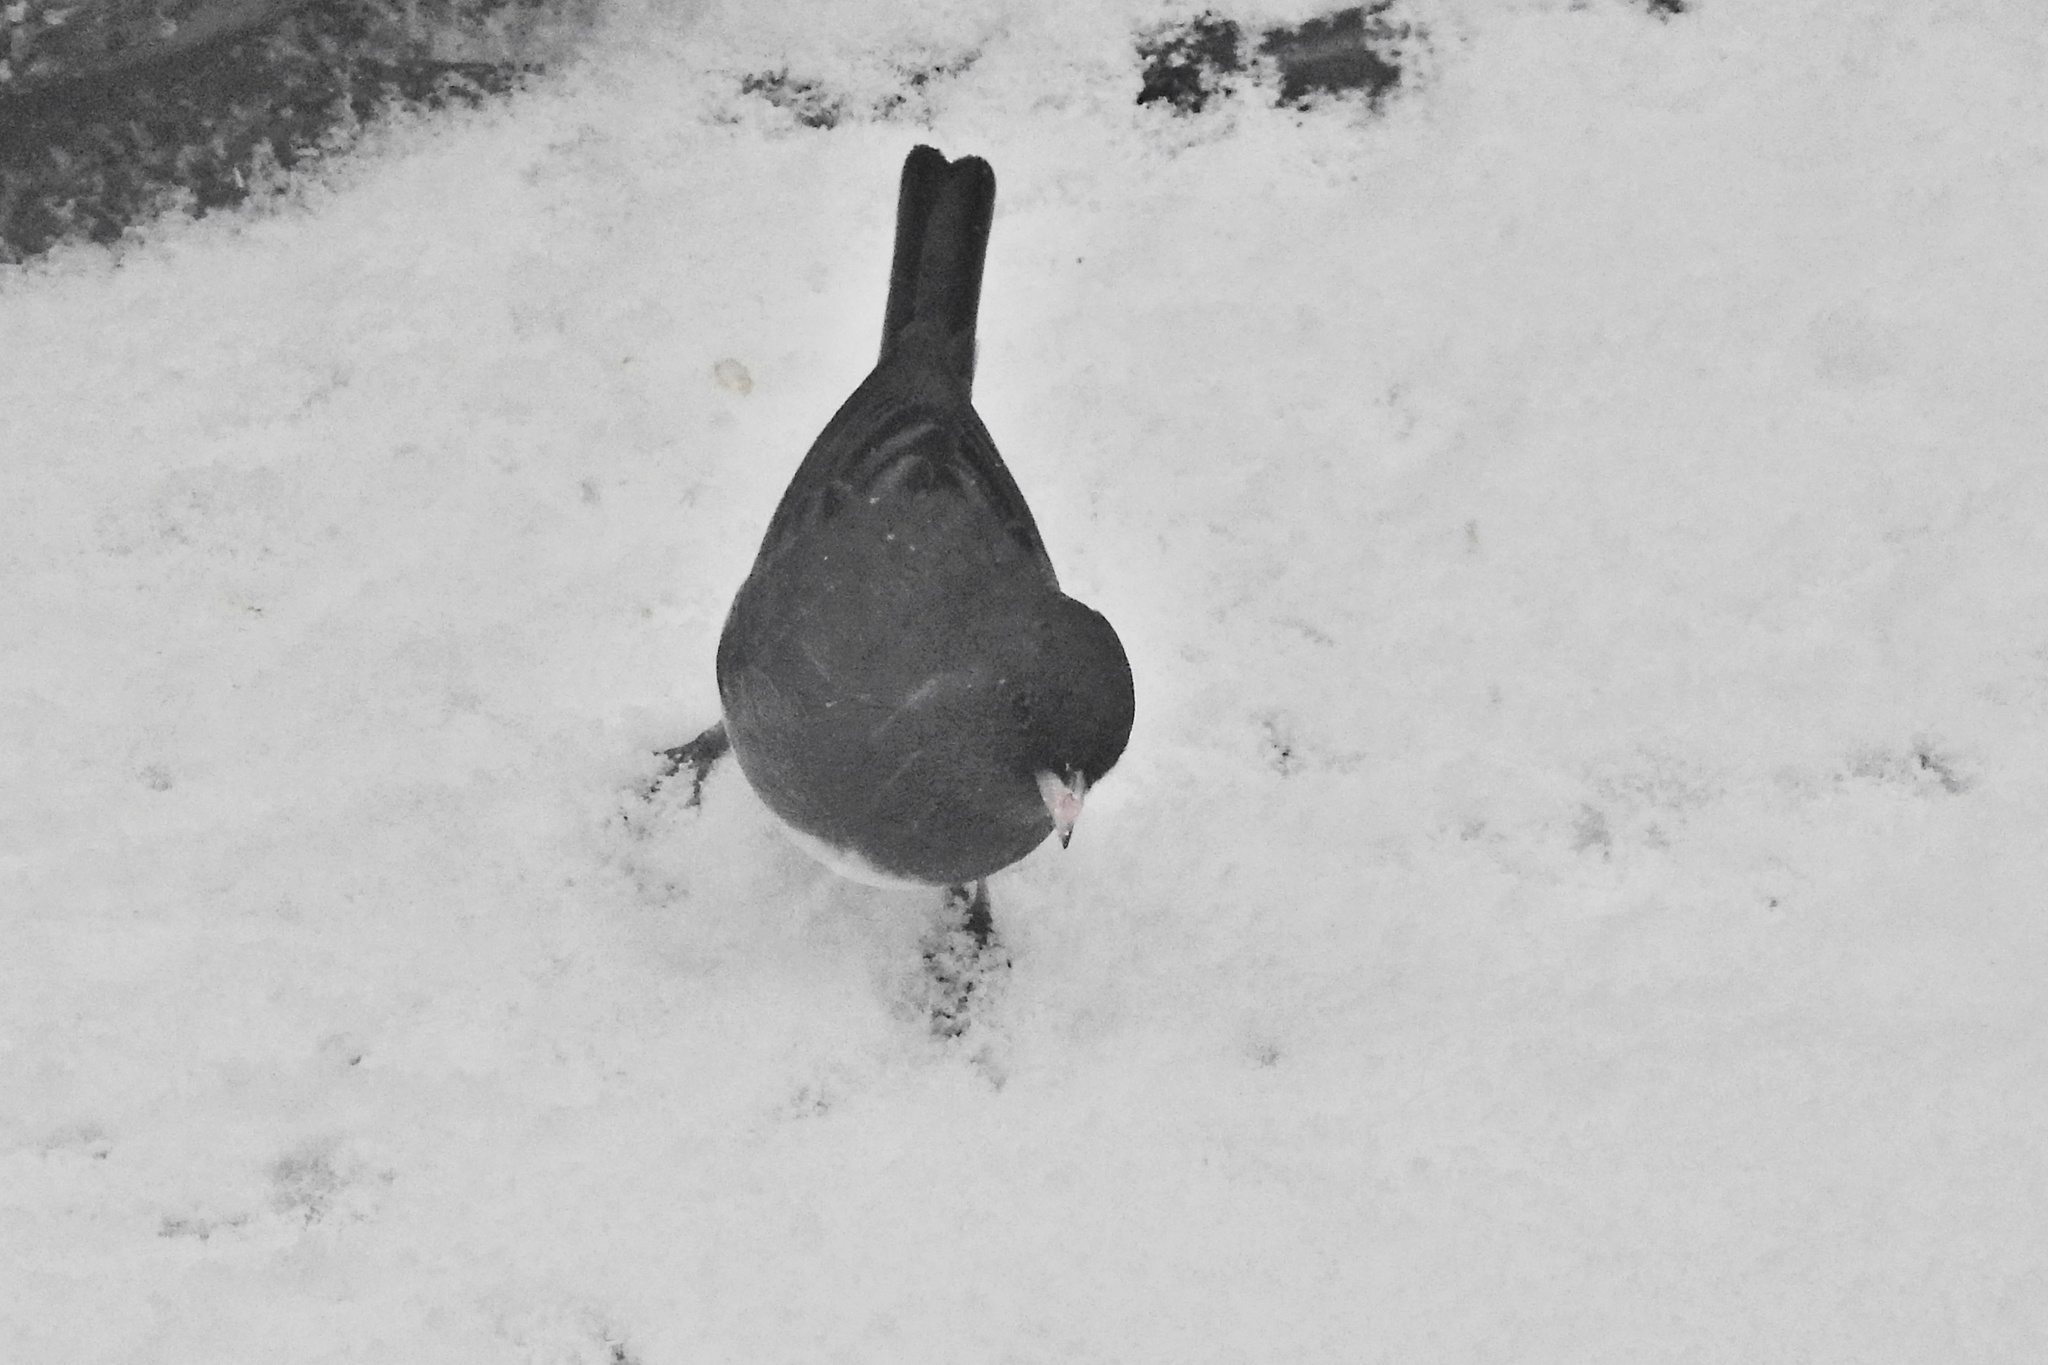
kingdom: Animalia
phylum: Chordata
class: Aves
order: Passeriformes
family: Passerellidae
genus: Junco
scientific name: Junco hyemalis
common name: Dark-eyed junco
